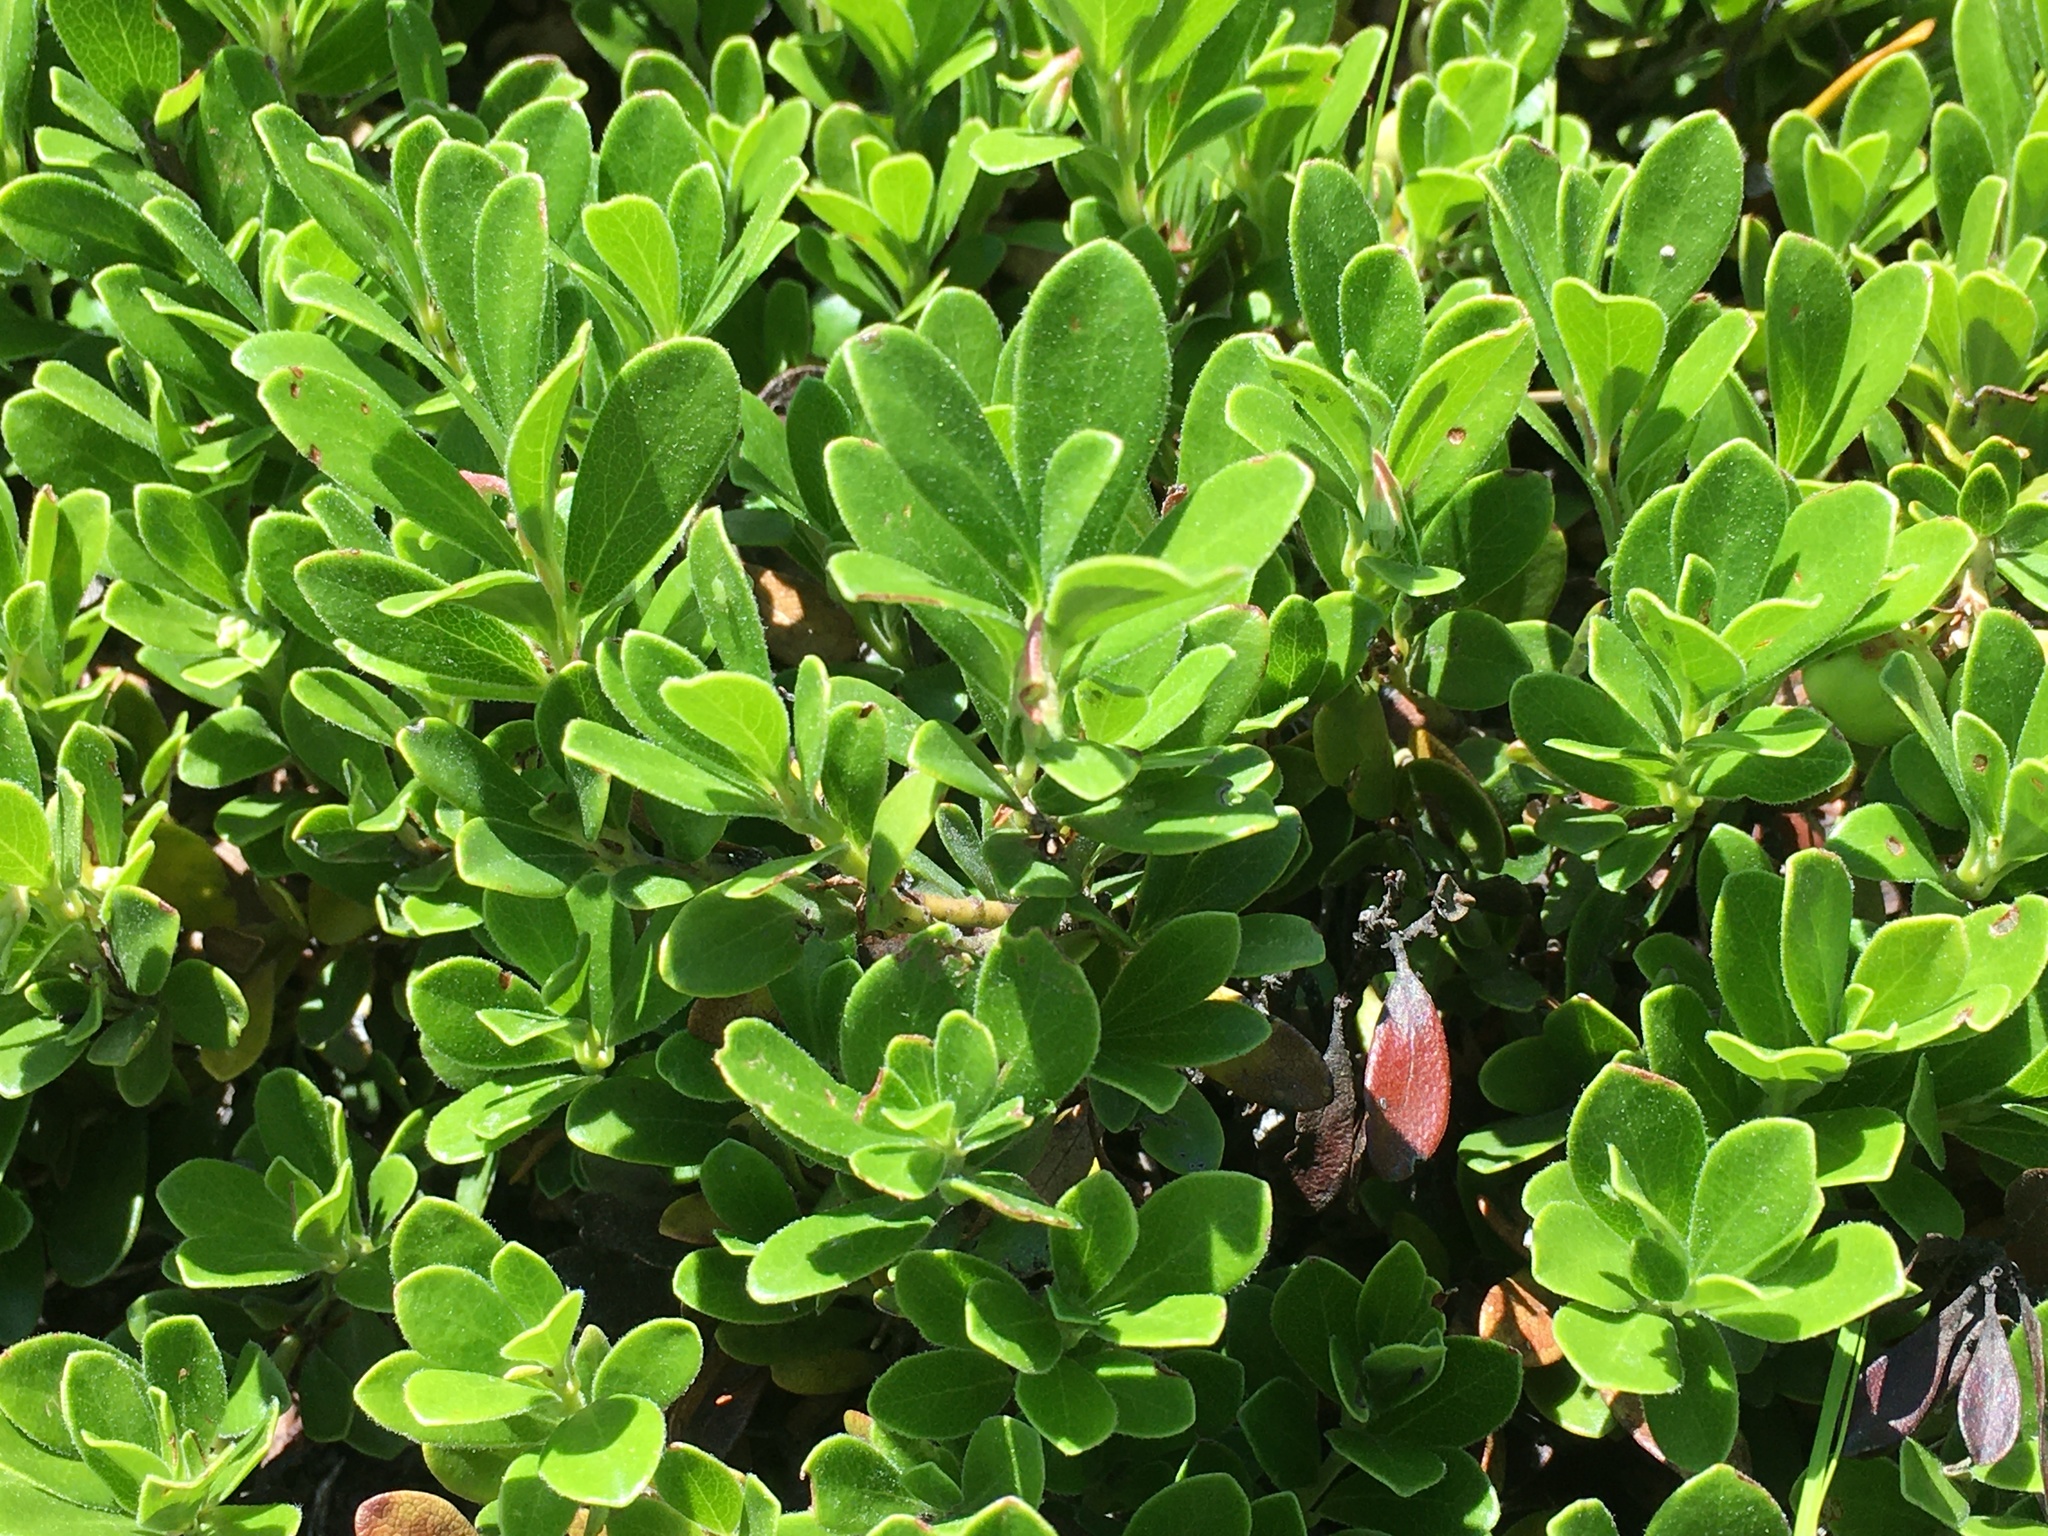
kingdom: Plantae
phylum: Tracheophyta
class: Magnoliopsida
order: Ericales
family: Ericaceae
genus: Arctostaphylos
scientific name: Arctostaphylos uva-ursi
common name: Bearberry
